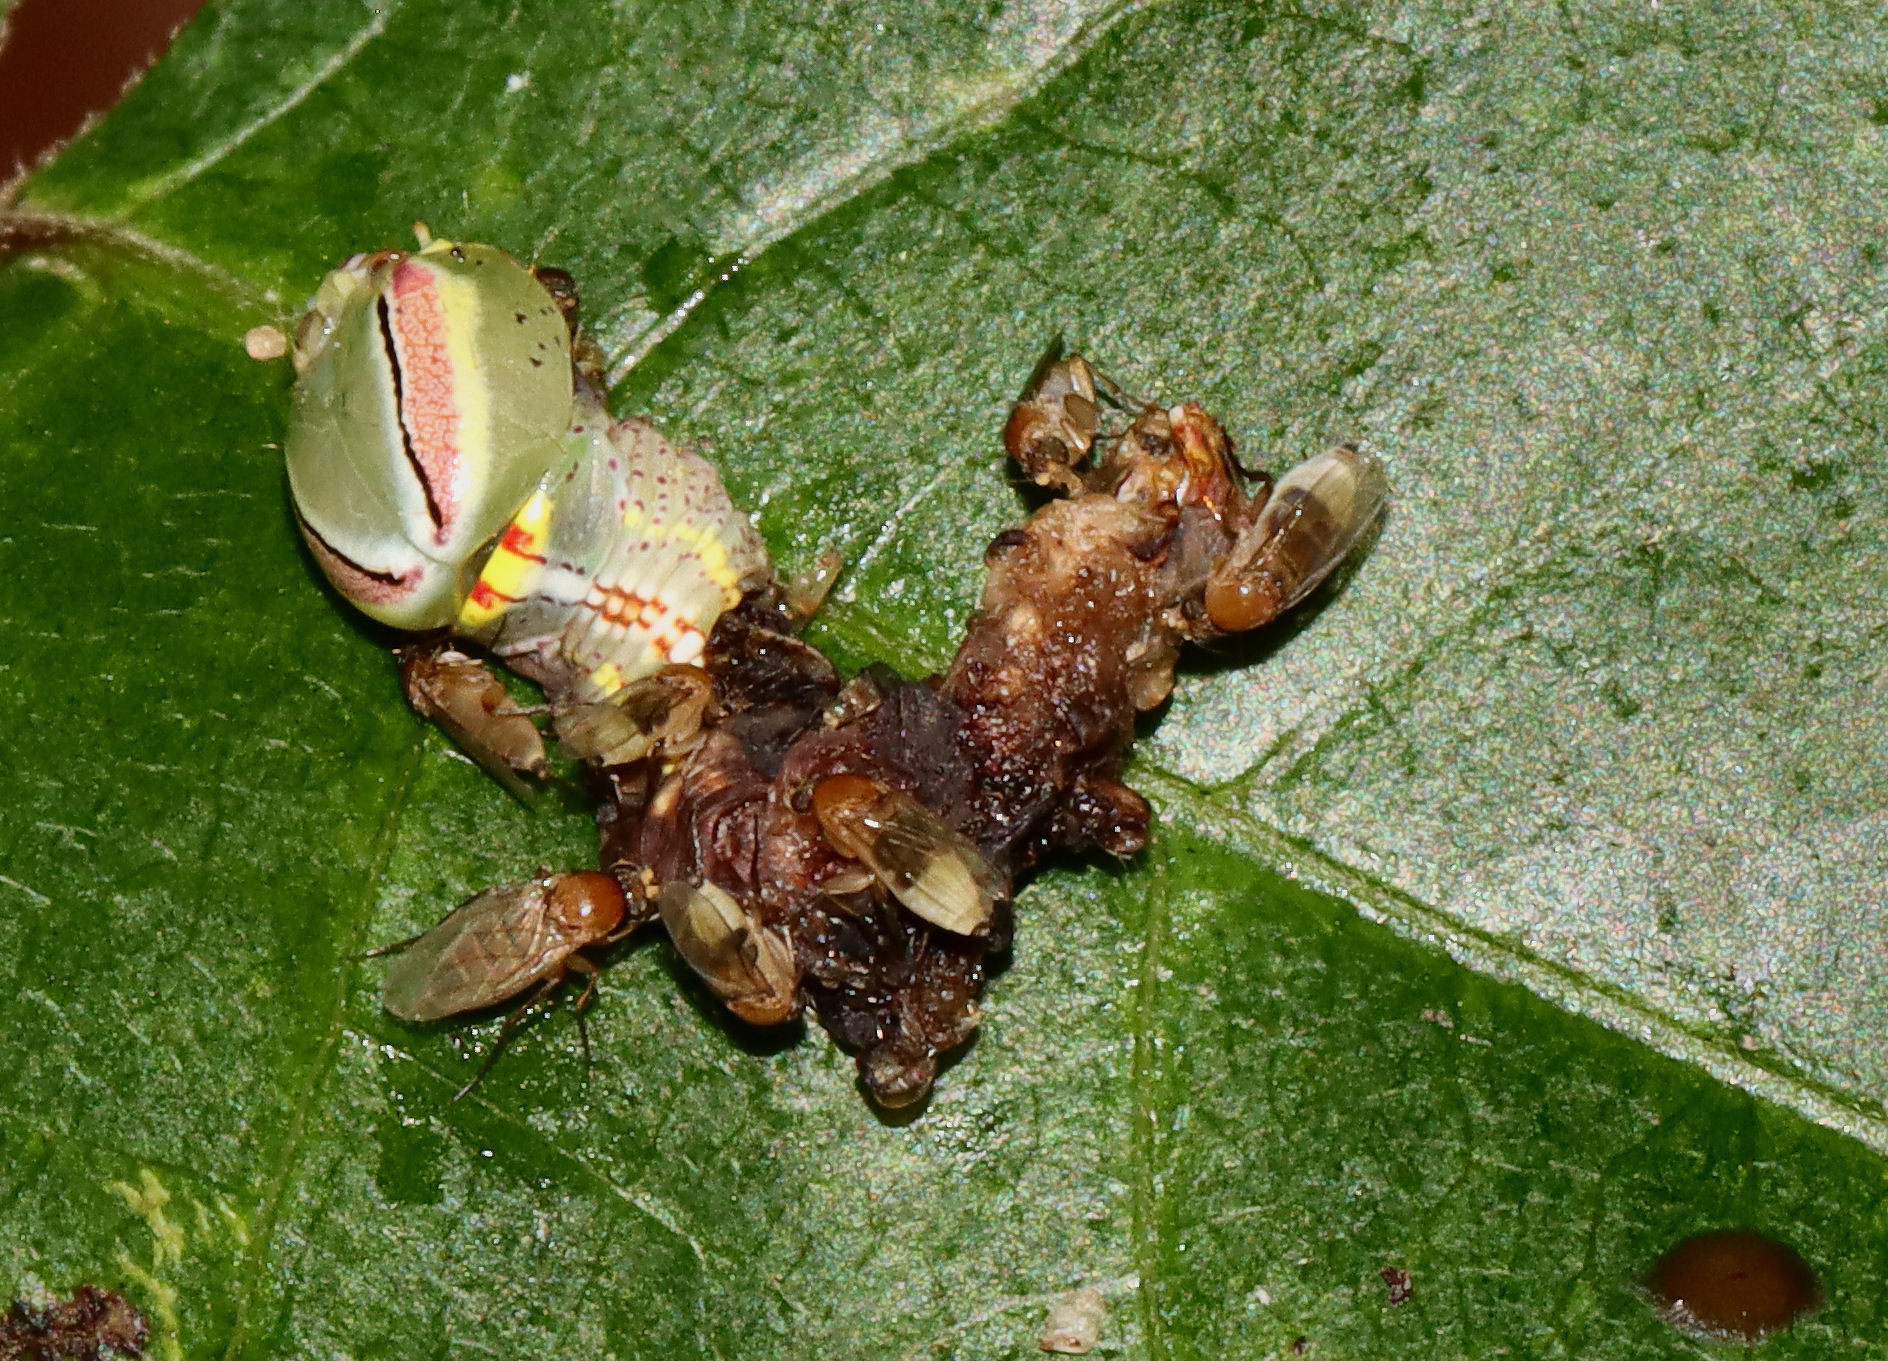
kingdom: Animalia
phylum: Arthropoda
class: Insecta
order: Lepidoptera
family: Notodontidae
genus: Disphragis
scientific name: Disphragis Cecrita guttivitta
